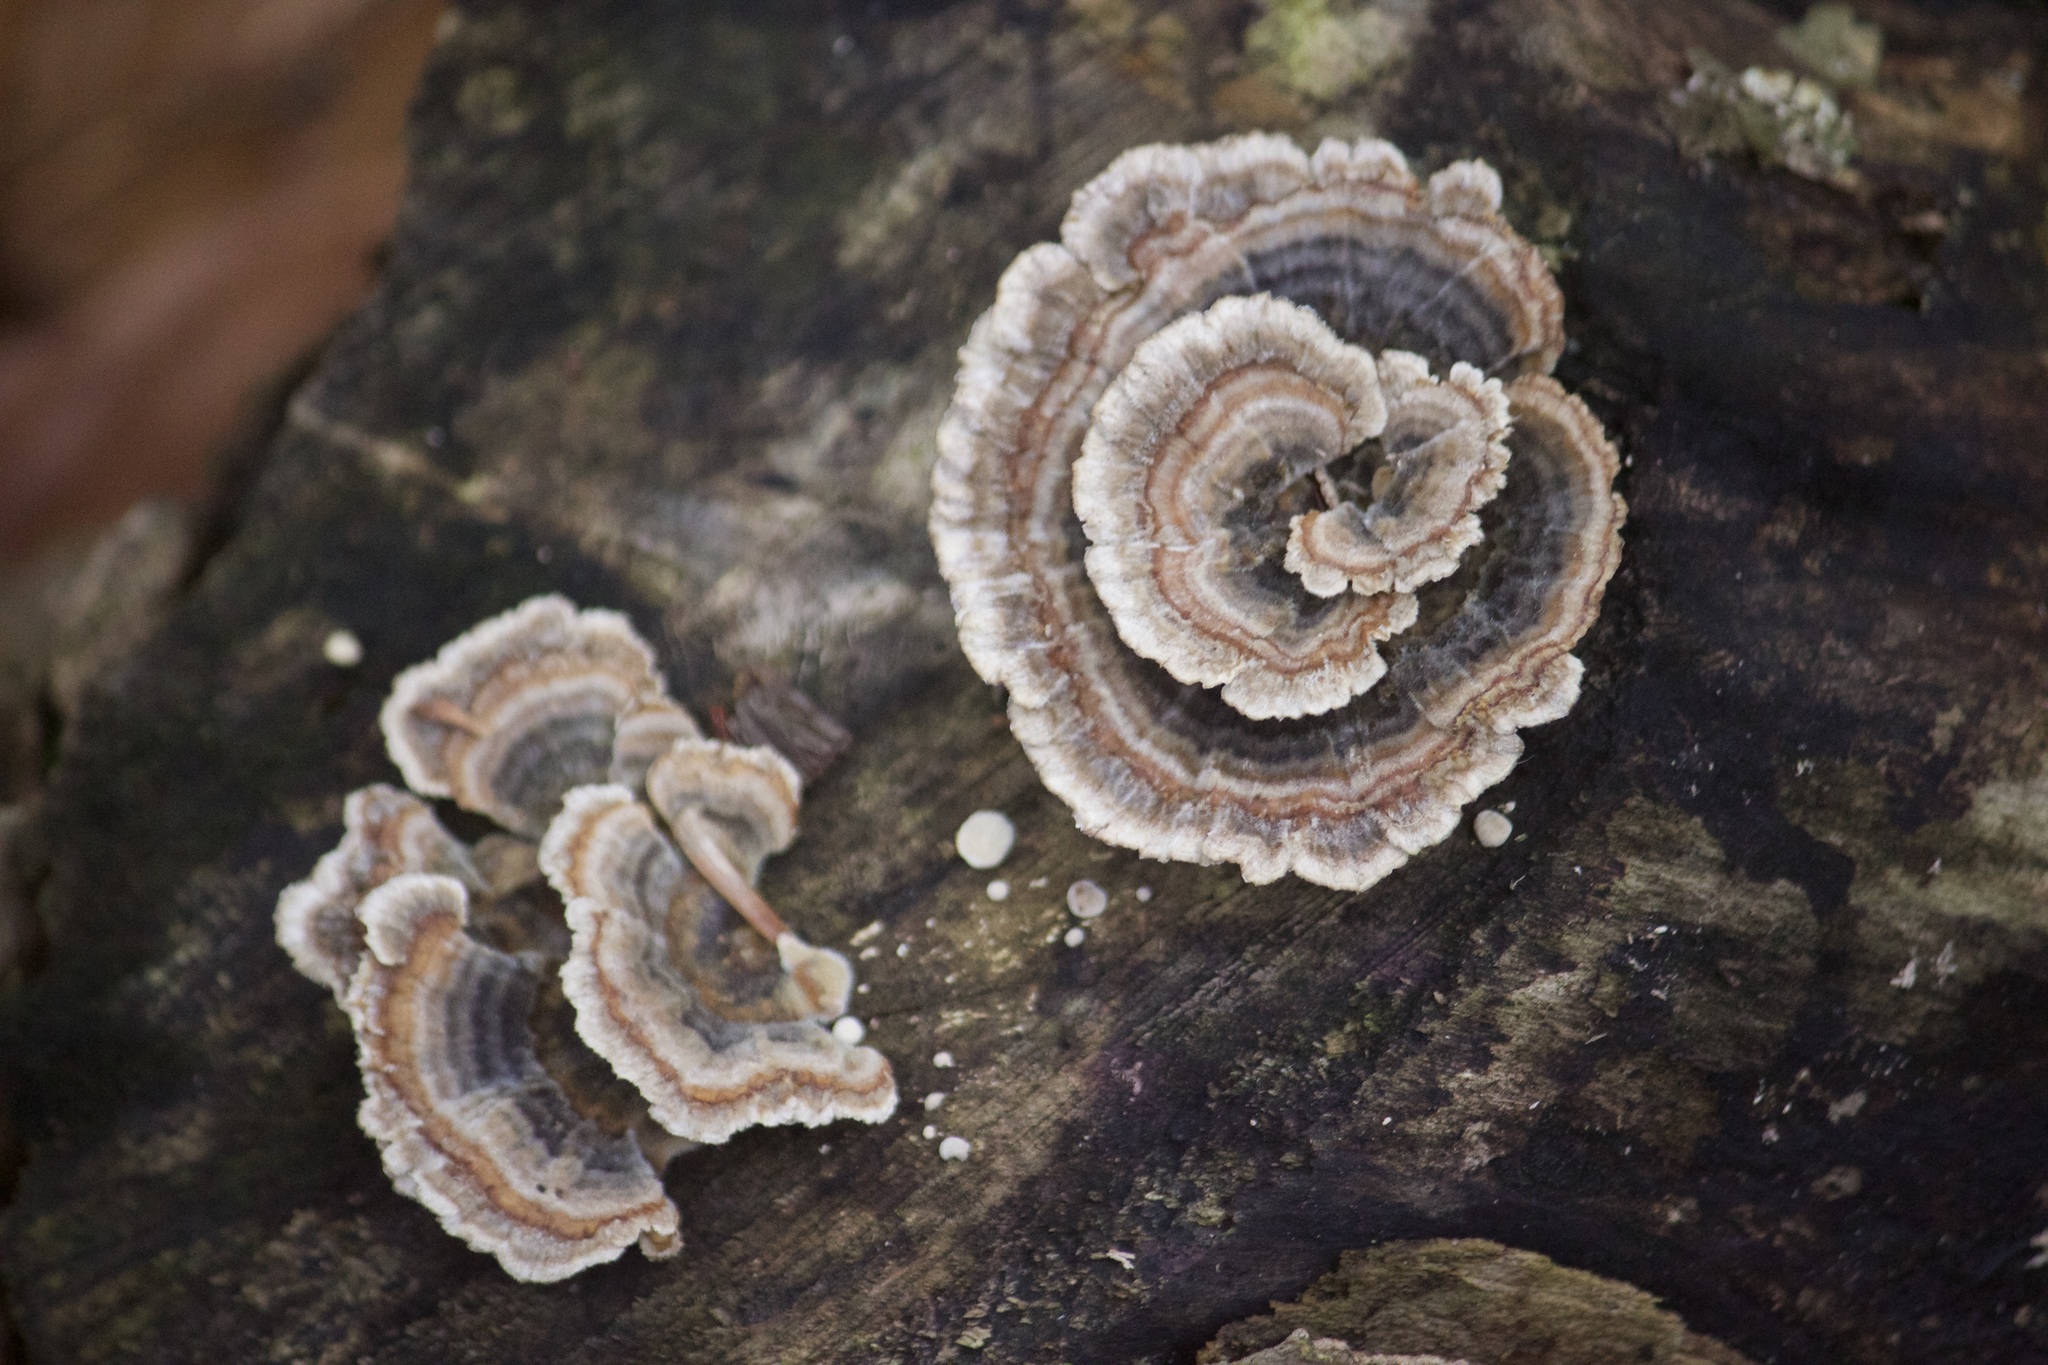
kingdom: Fungi
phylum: Basidiomycota
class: Agaricomycetes
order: Polyporales
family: Polyporaceae
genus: Trametes
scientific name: Trametes versicolor
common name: Turkeytail
